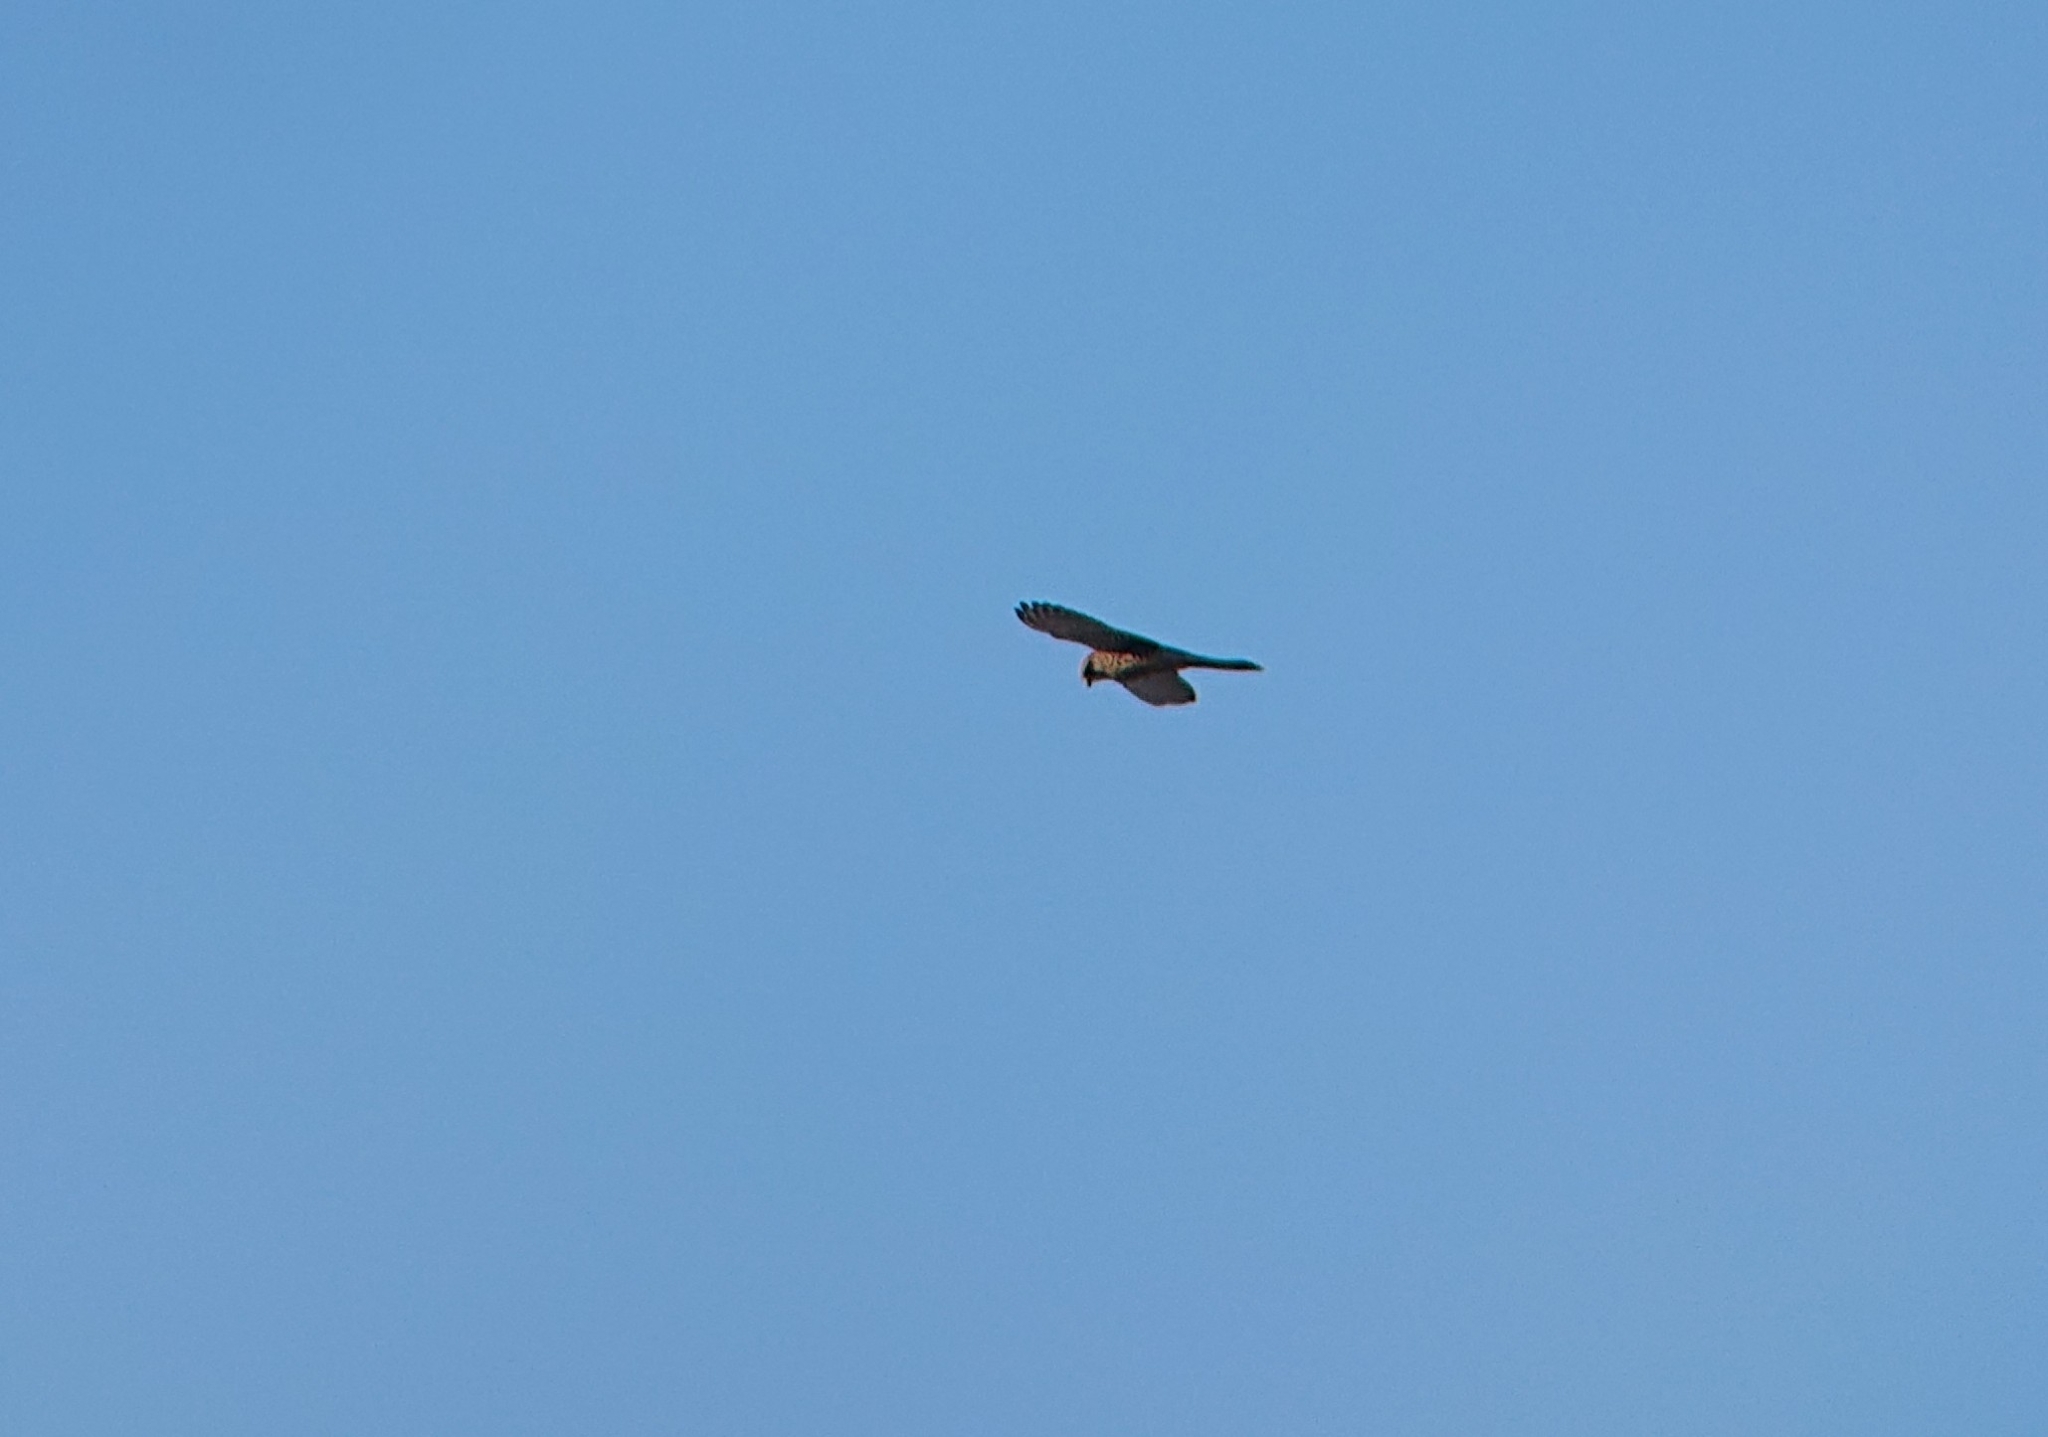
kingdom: Animalia
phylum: Chordata
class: Aves
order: Falconiformes
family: Falconidae
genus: Falco
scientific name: Falco tinnunculus
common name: Common kestrel
